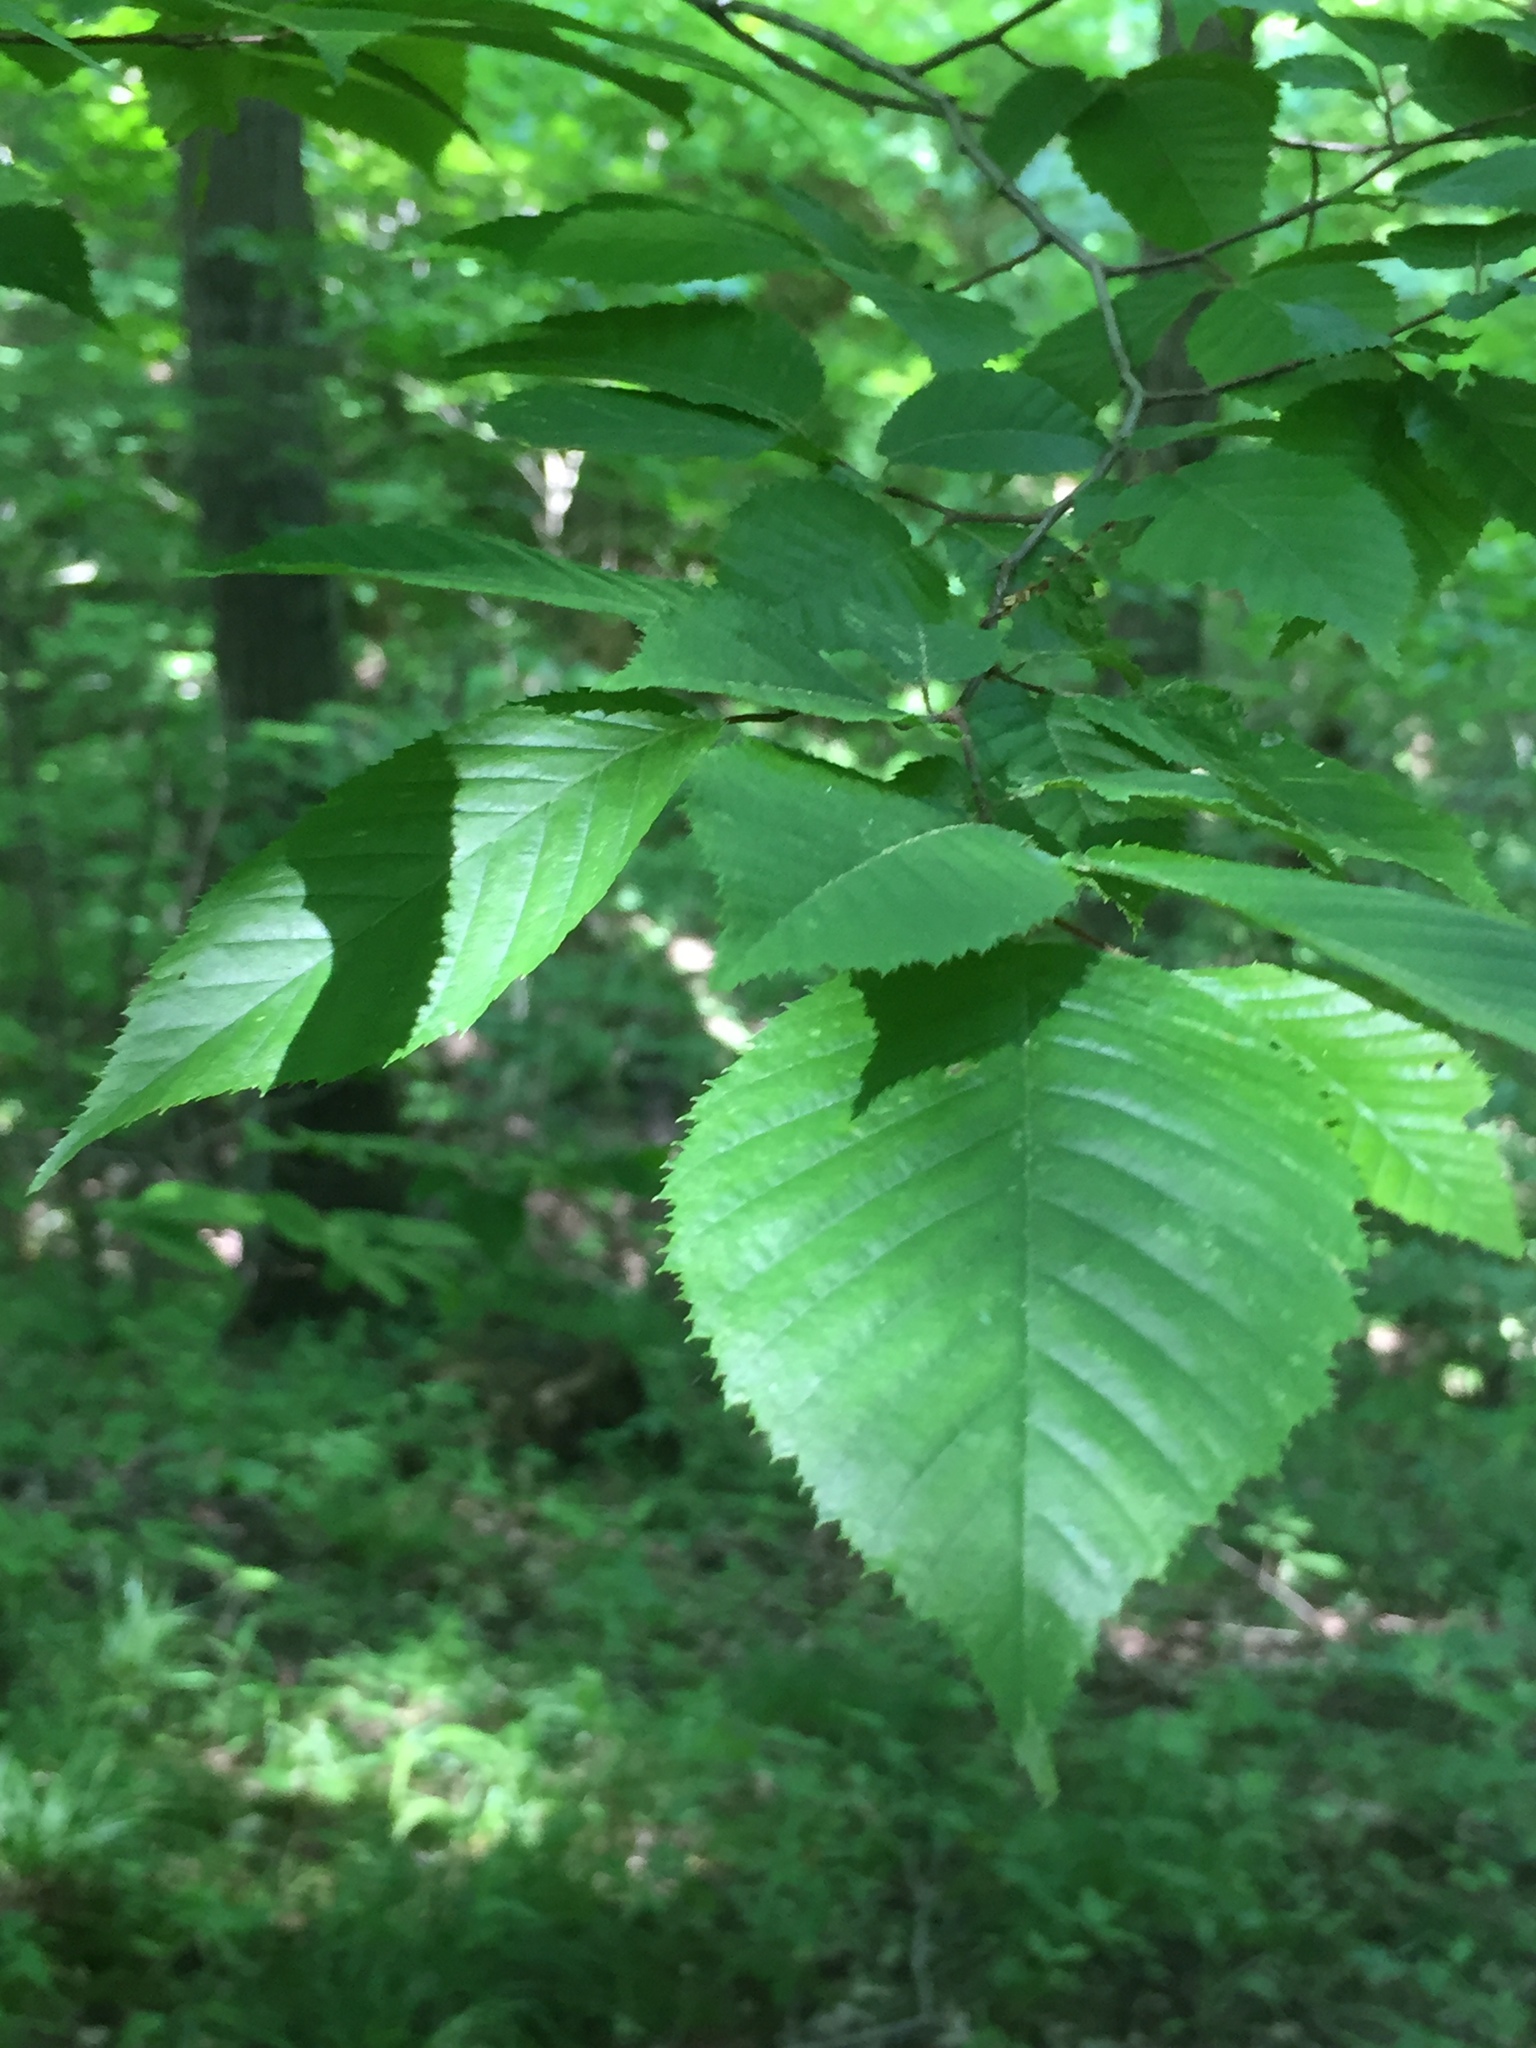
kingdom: Plantae
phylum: Tracheophyta
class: Magnoliopsida
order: Fagales
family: Betulaceae
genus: Carpinus
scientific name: Carpinus caroliniana
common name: American hornbeam
